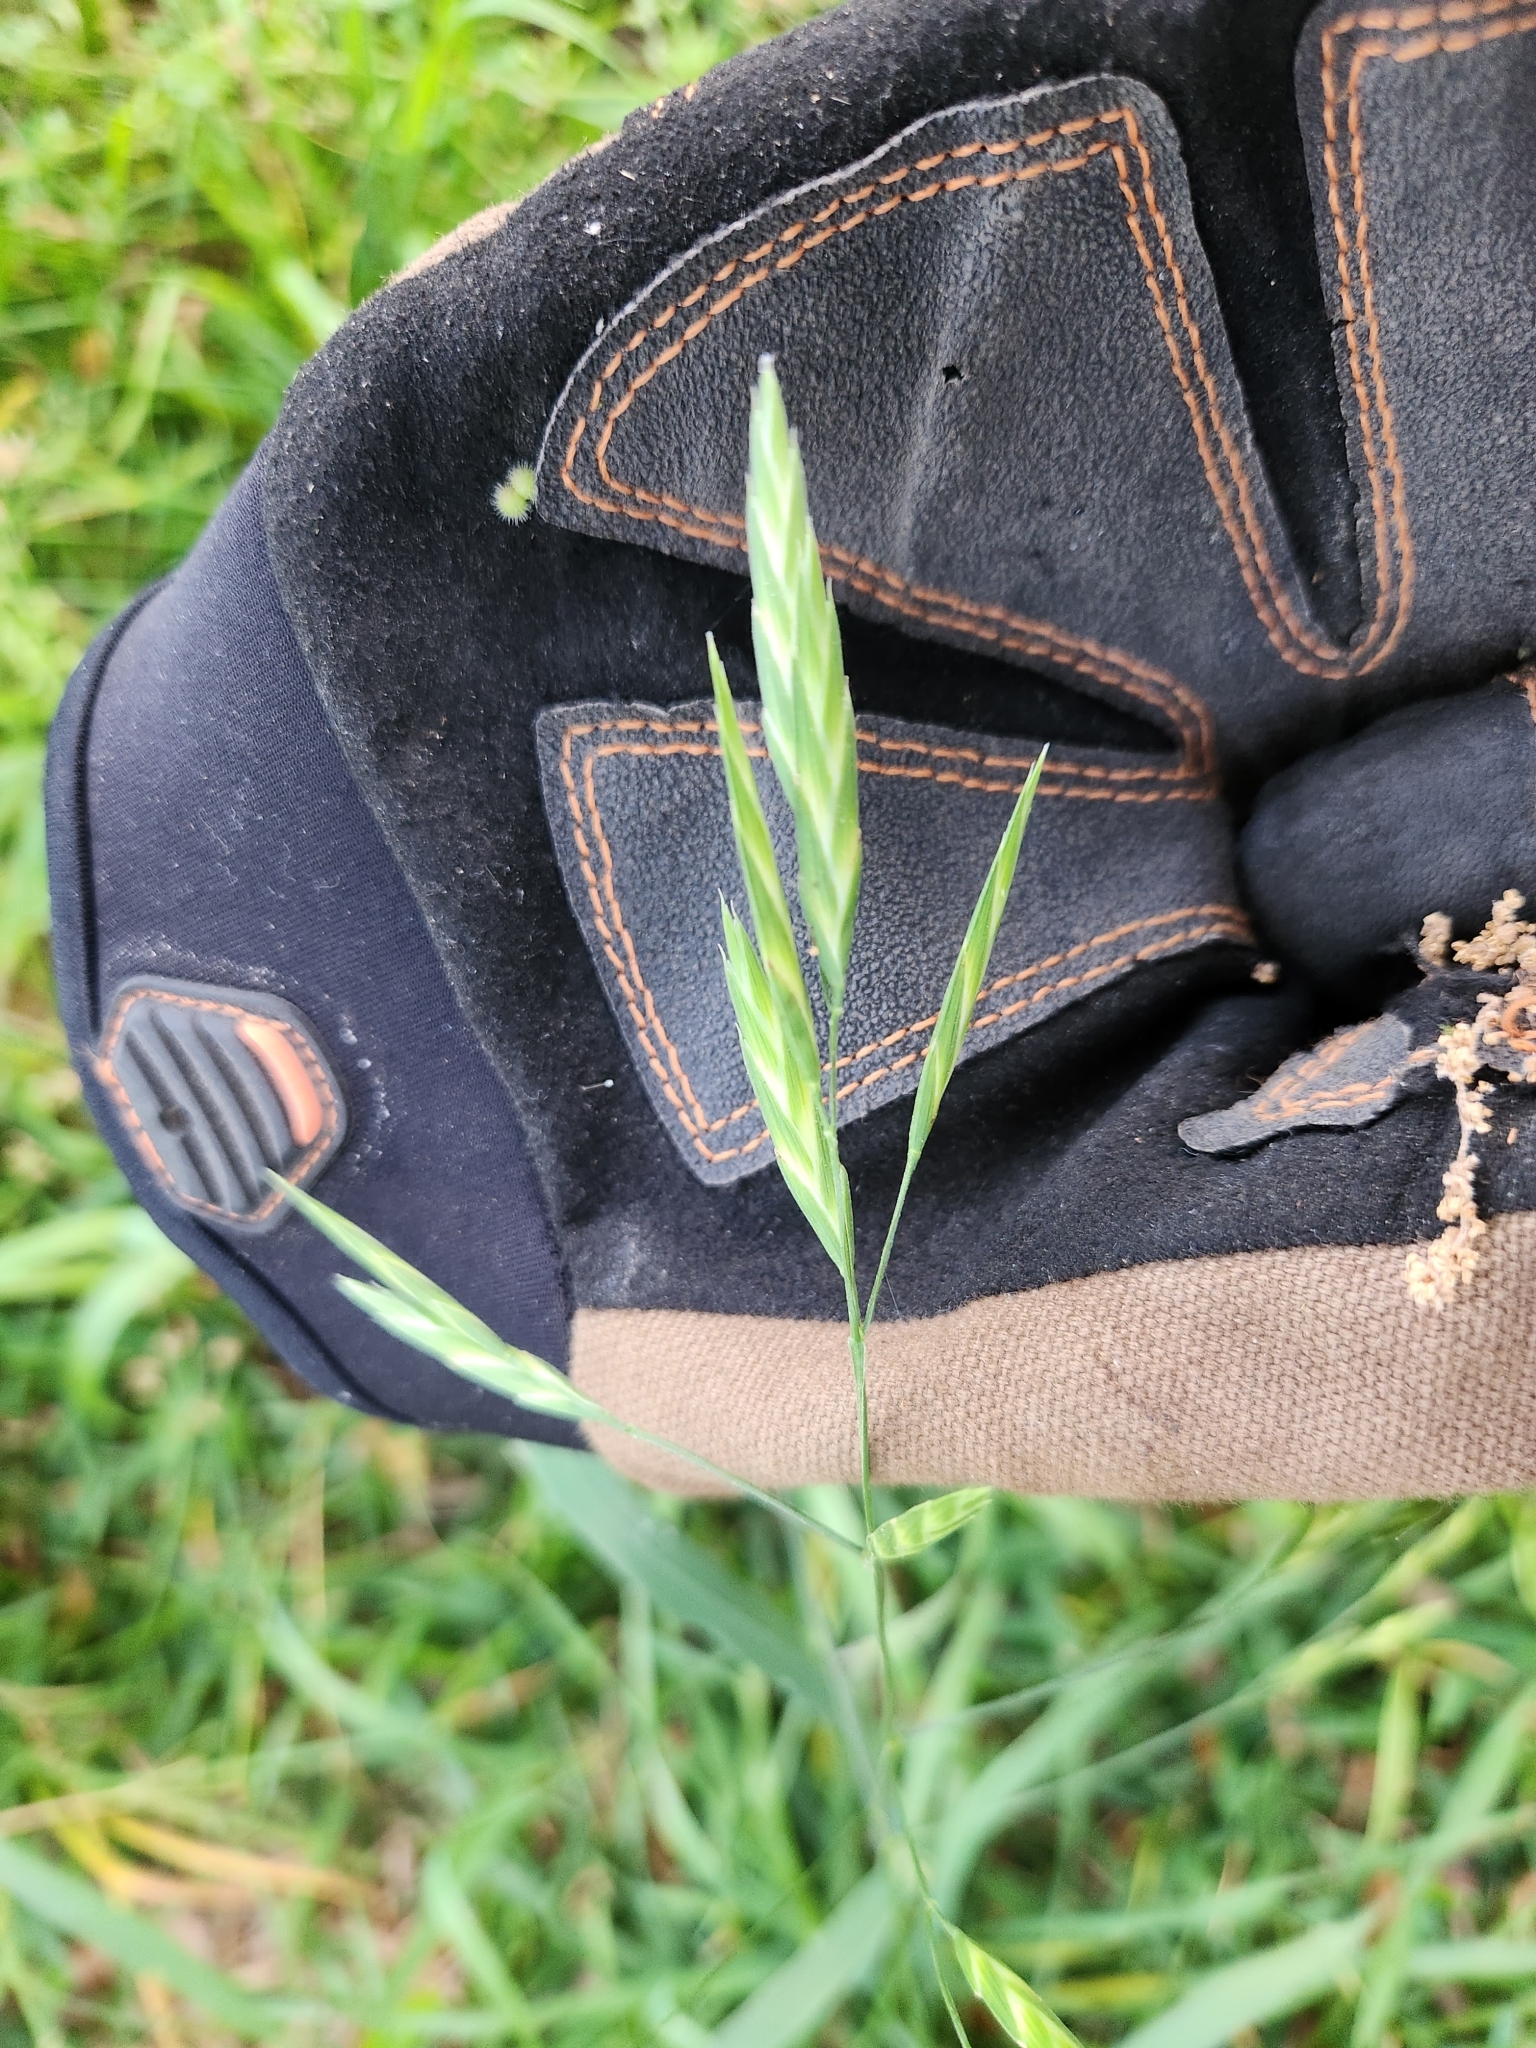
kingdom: Plantae
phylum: Tracheophyta
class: Liliopsida
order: Poales
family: Poaceae
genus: Bromus
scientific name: Bromus catharticus
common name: Rescuegrass
